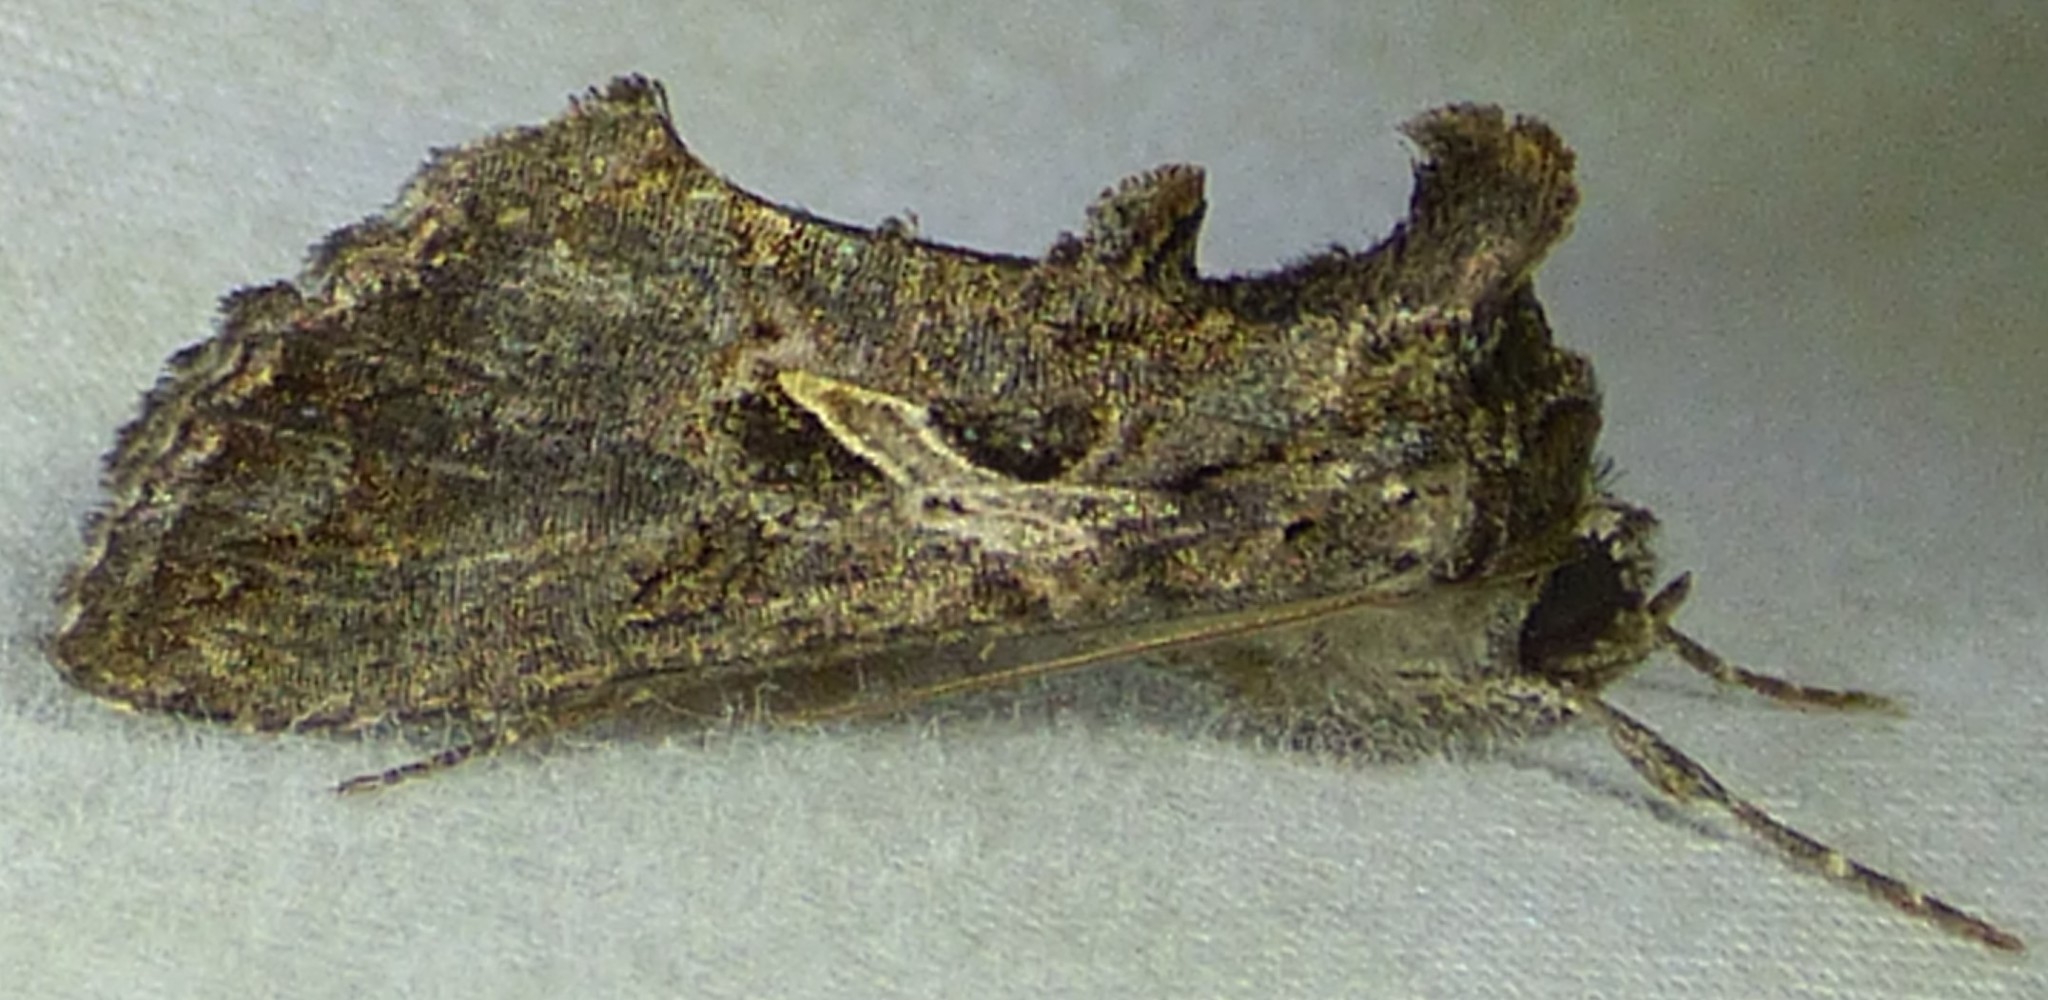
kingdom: Animalia
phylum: Arthropoda
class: Insecta
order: Lepidoptera
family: Noctuidae
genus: Ctenoplusia
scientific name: Ctenoplusia oxygramma
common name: Sharp-stigma looper moth
